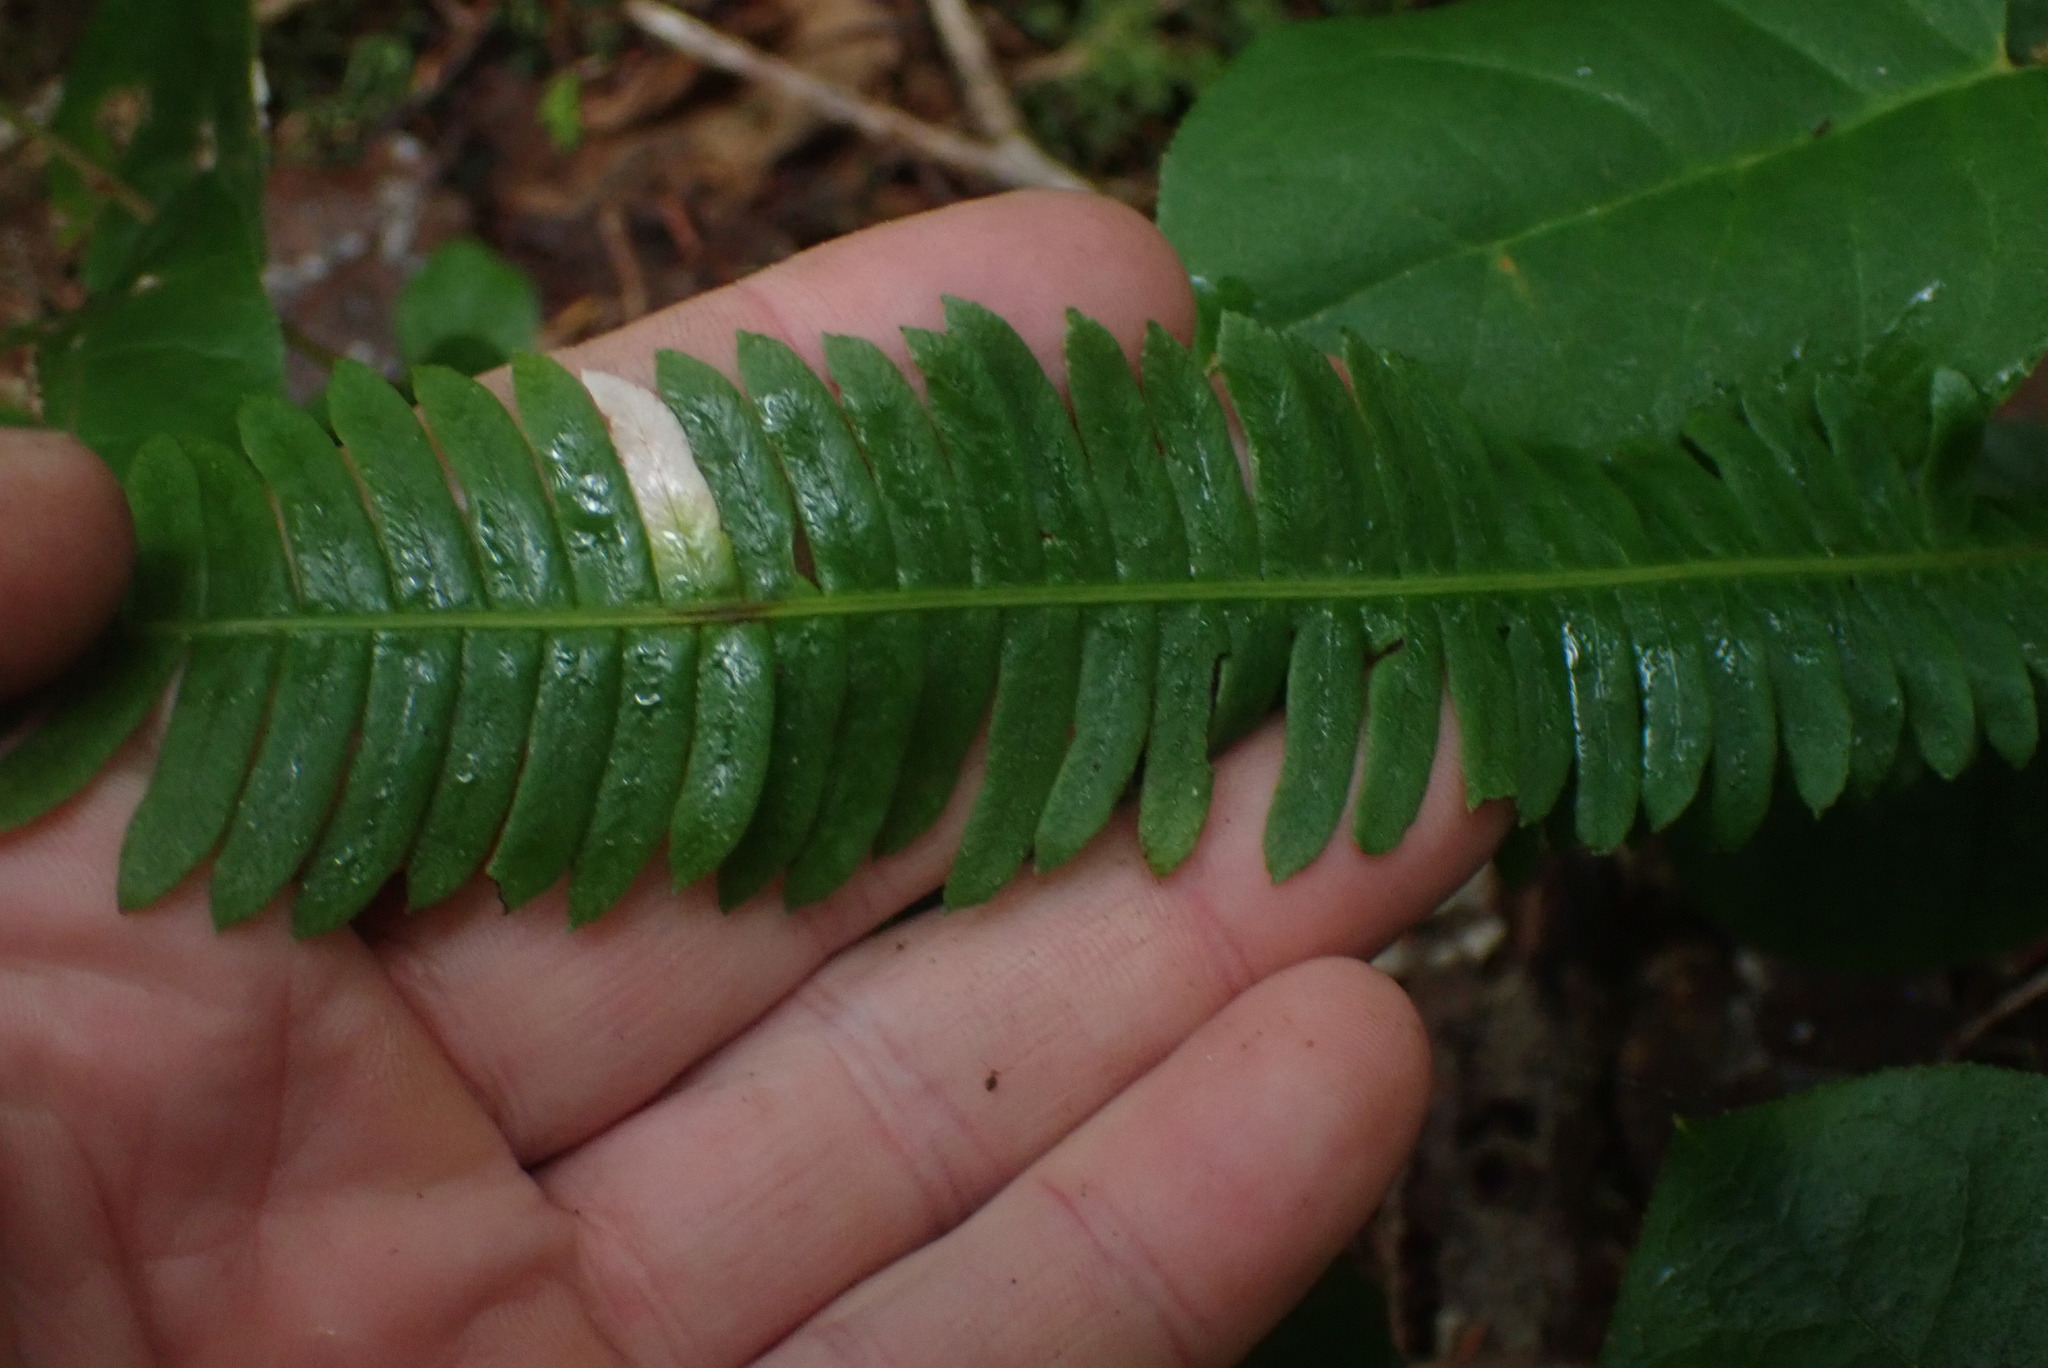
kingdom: Plantae
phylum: Tracheophyta
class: Polypodiopsida
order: Polypodiales
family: Blechnaceae
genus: Struthiopteris
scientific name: Struthiopteris spicant
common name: Deer fern
